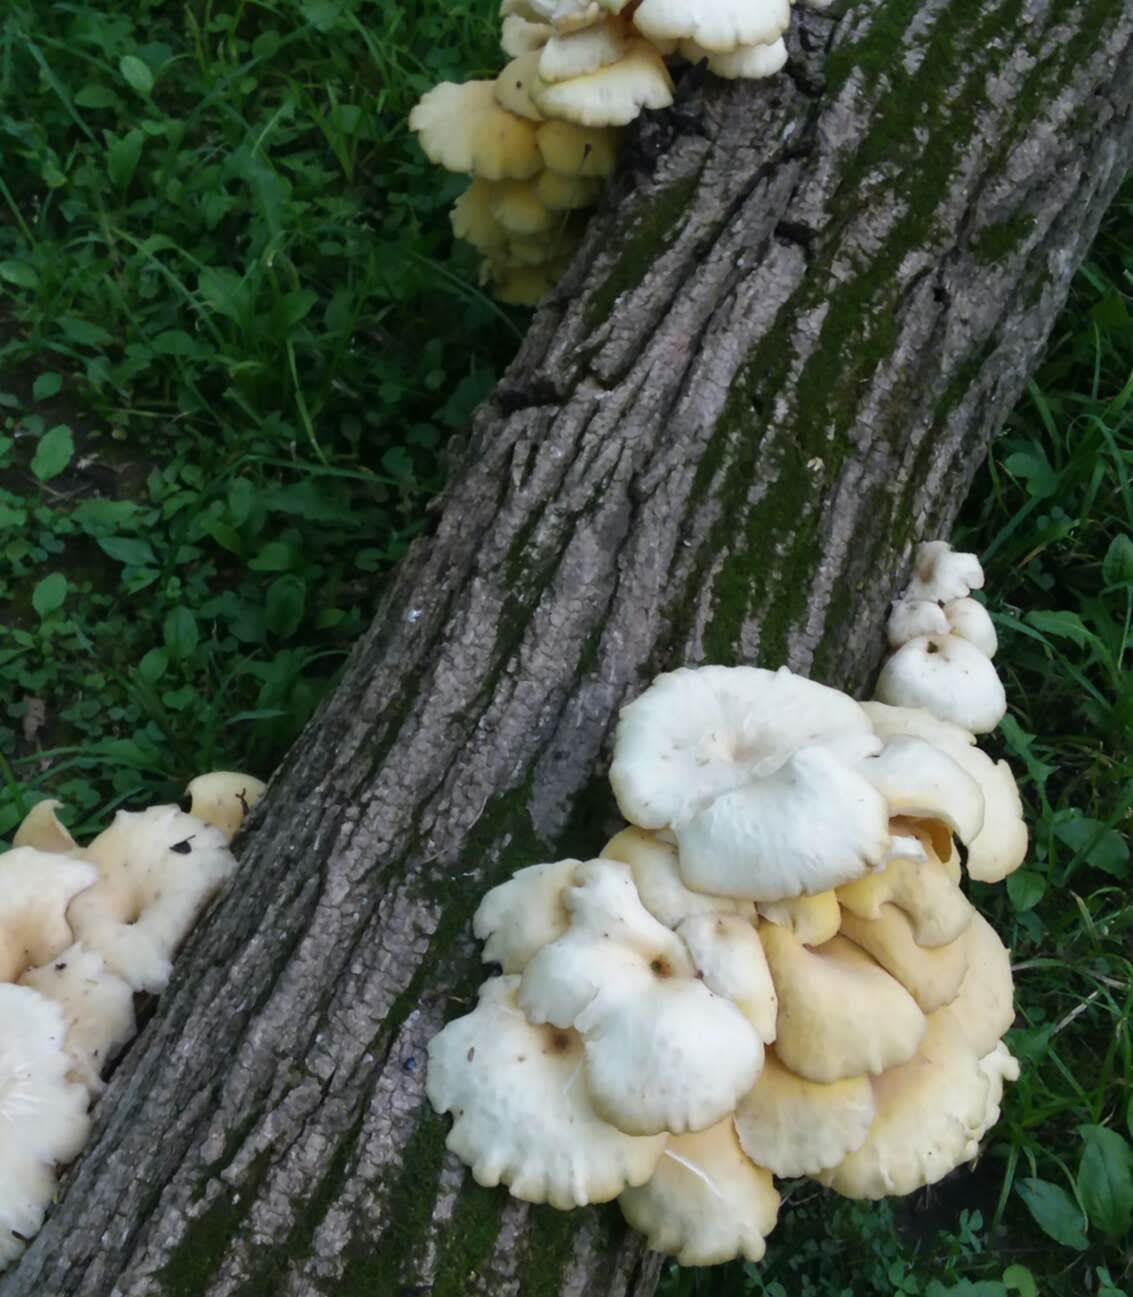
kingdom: Fungi
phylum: Basidiomycota
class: Agaricomycetes
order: Agaricales
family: Pleurotaceae
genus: Pleurotus
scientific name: Pleurotus citrinopileatus
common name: Golden oyster mushroom
